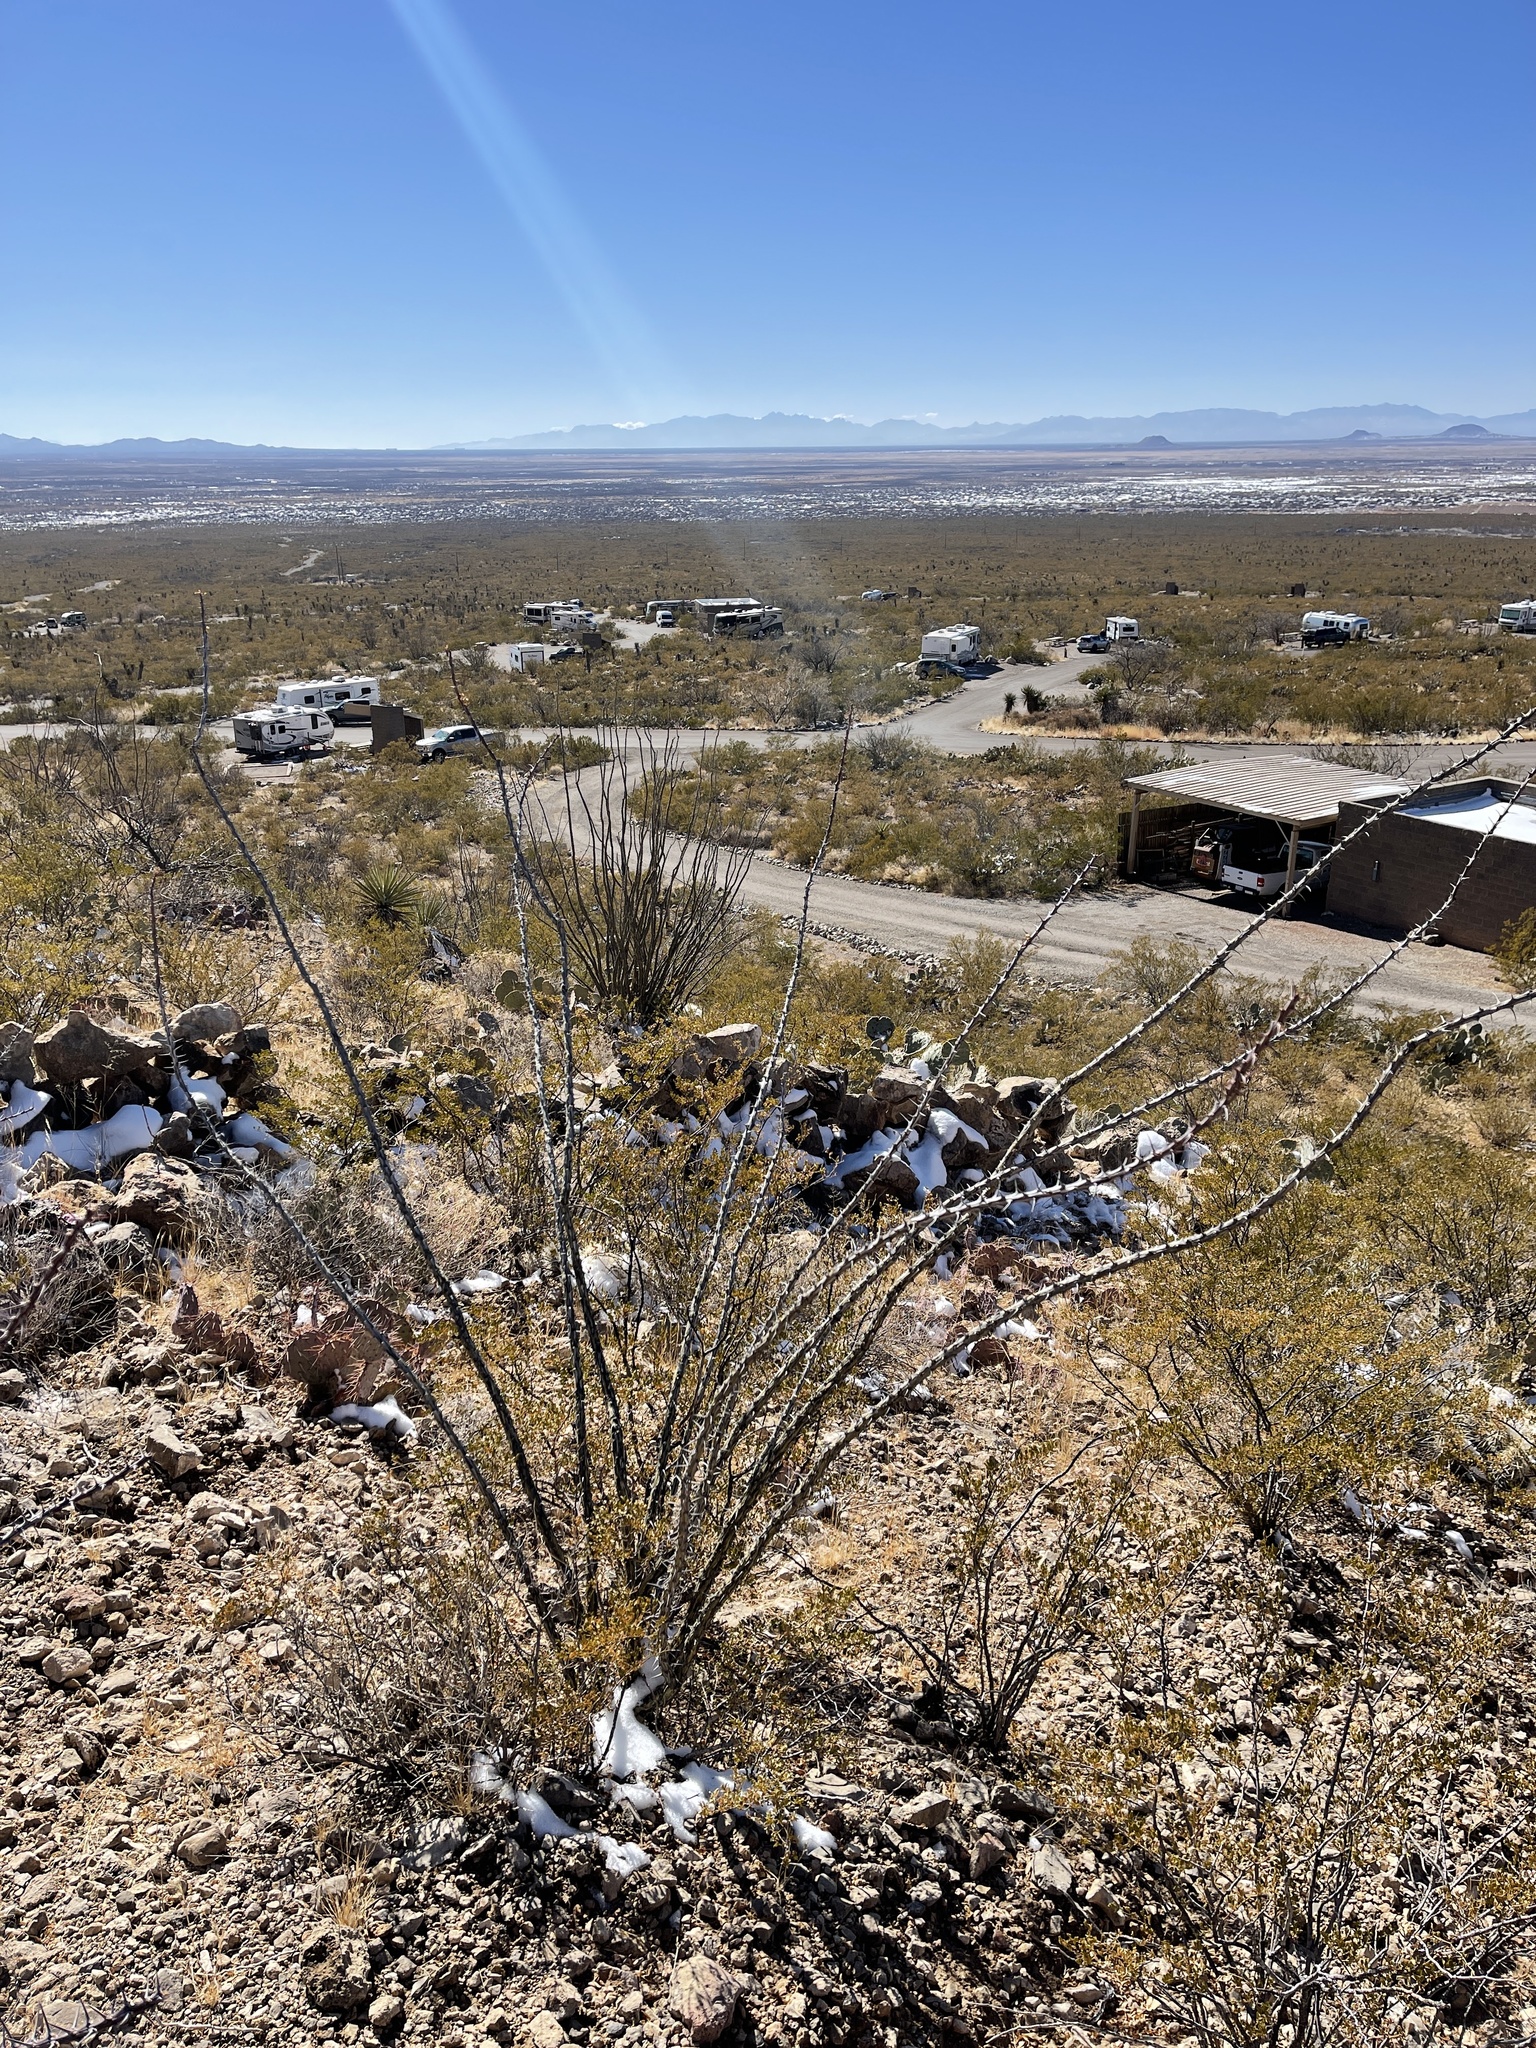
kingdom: Plantae
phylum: Tracheophyta
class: Magnoliopsida
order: Ericales
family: Fouquieriaceae
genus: Fouquieria
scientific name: Fouquieria splendens
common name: Vine-cactus
